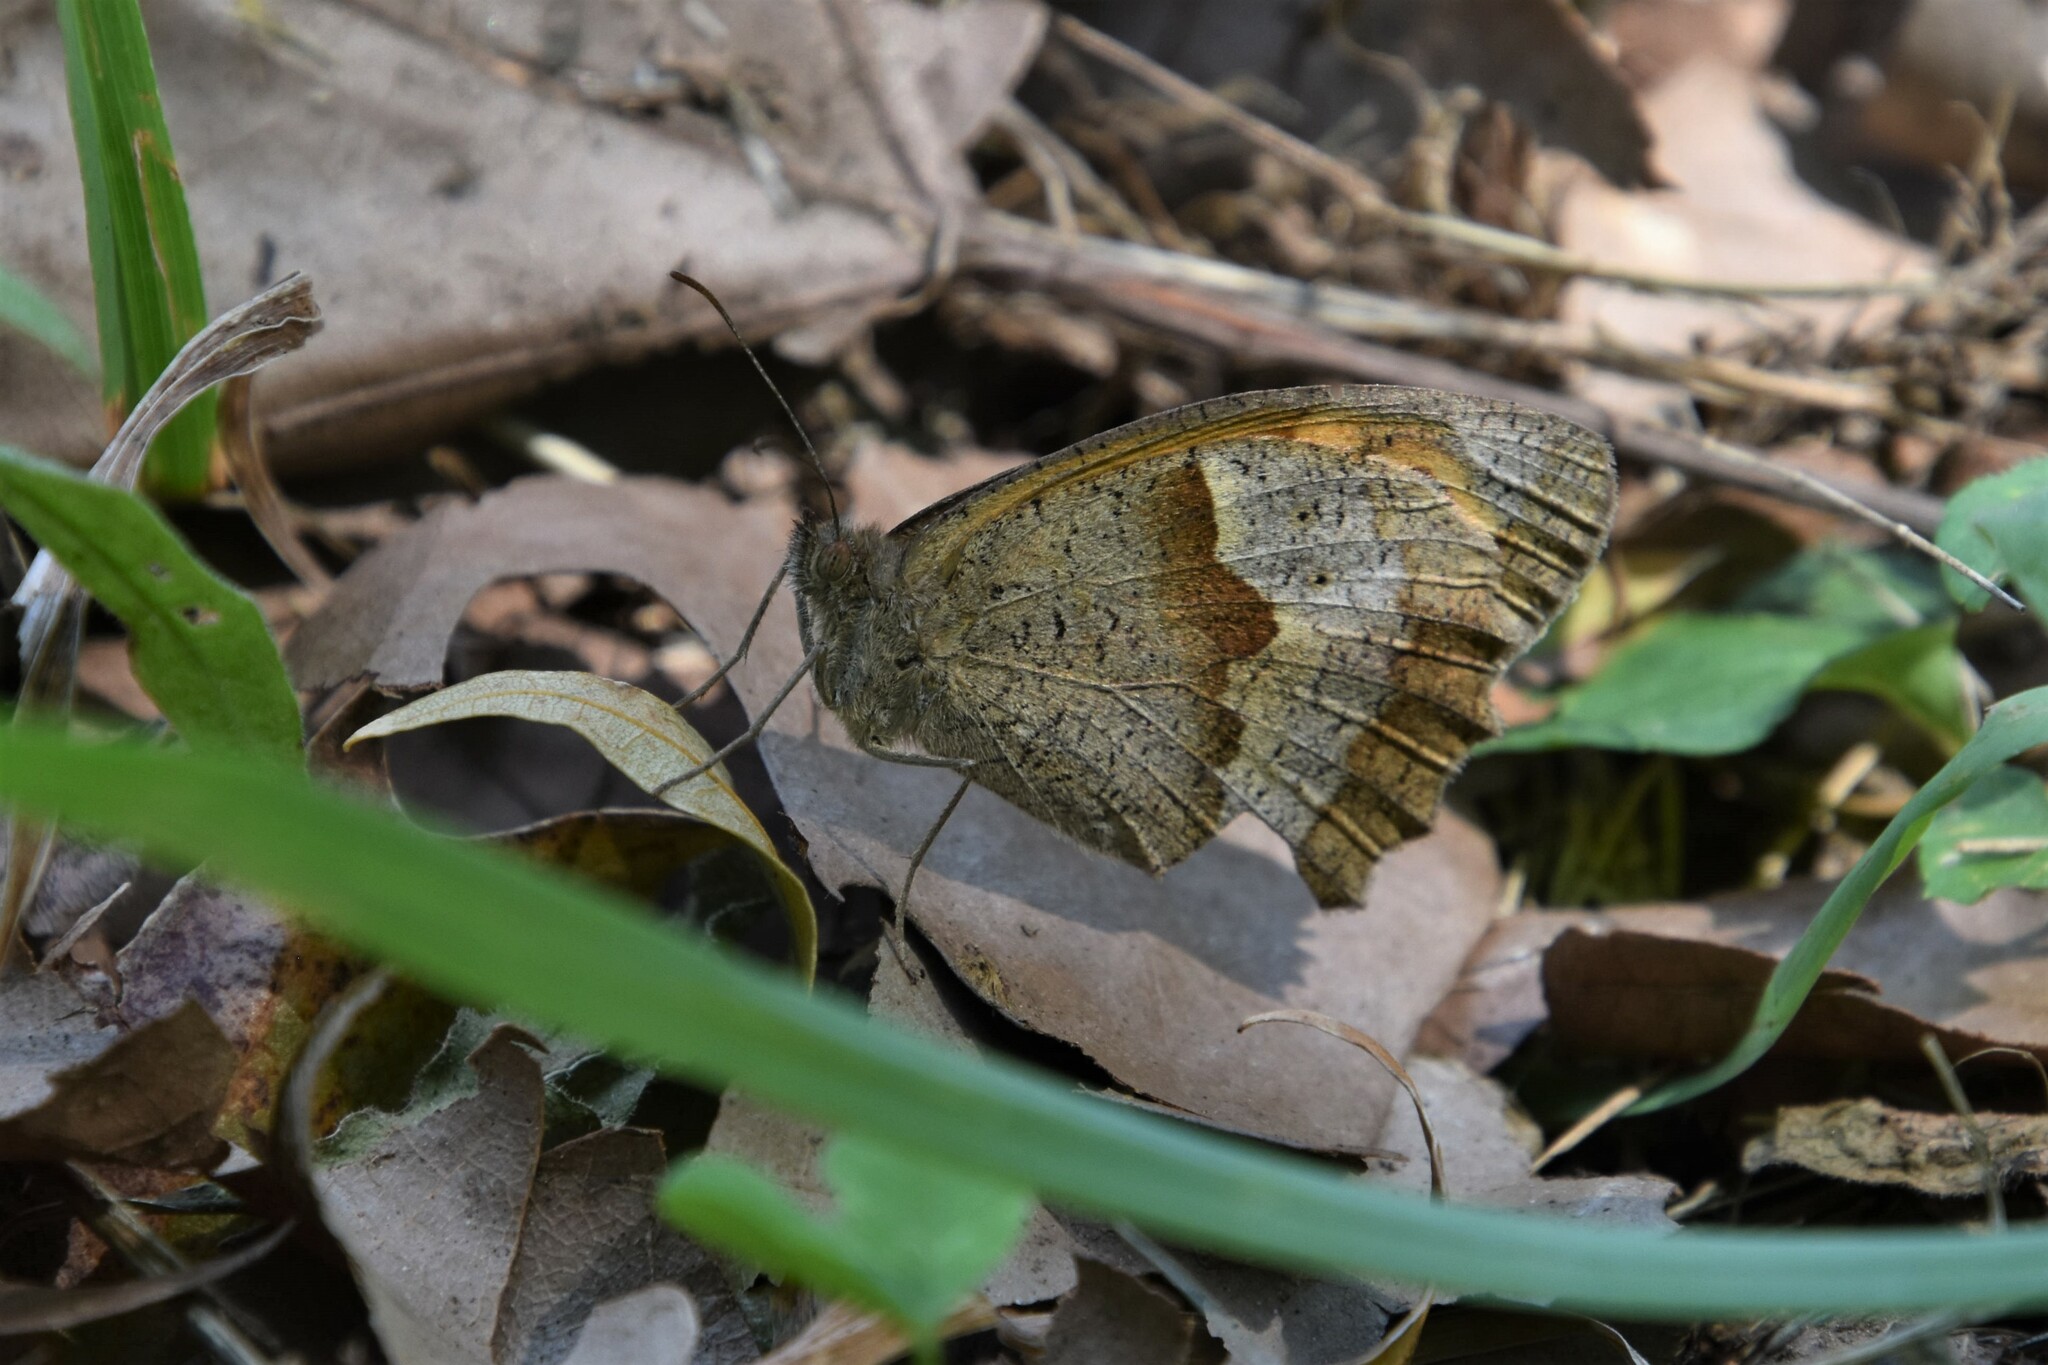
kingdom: Animalia
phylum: Arthropoda
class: Insecta
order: Lepidoptera
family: Nymphalidae
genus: Maniola
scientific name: Maniola jurtina
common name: Meadow brown
